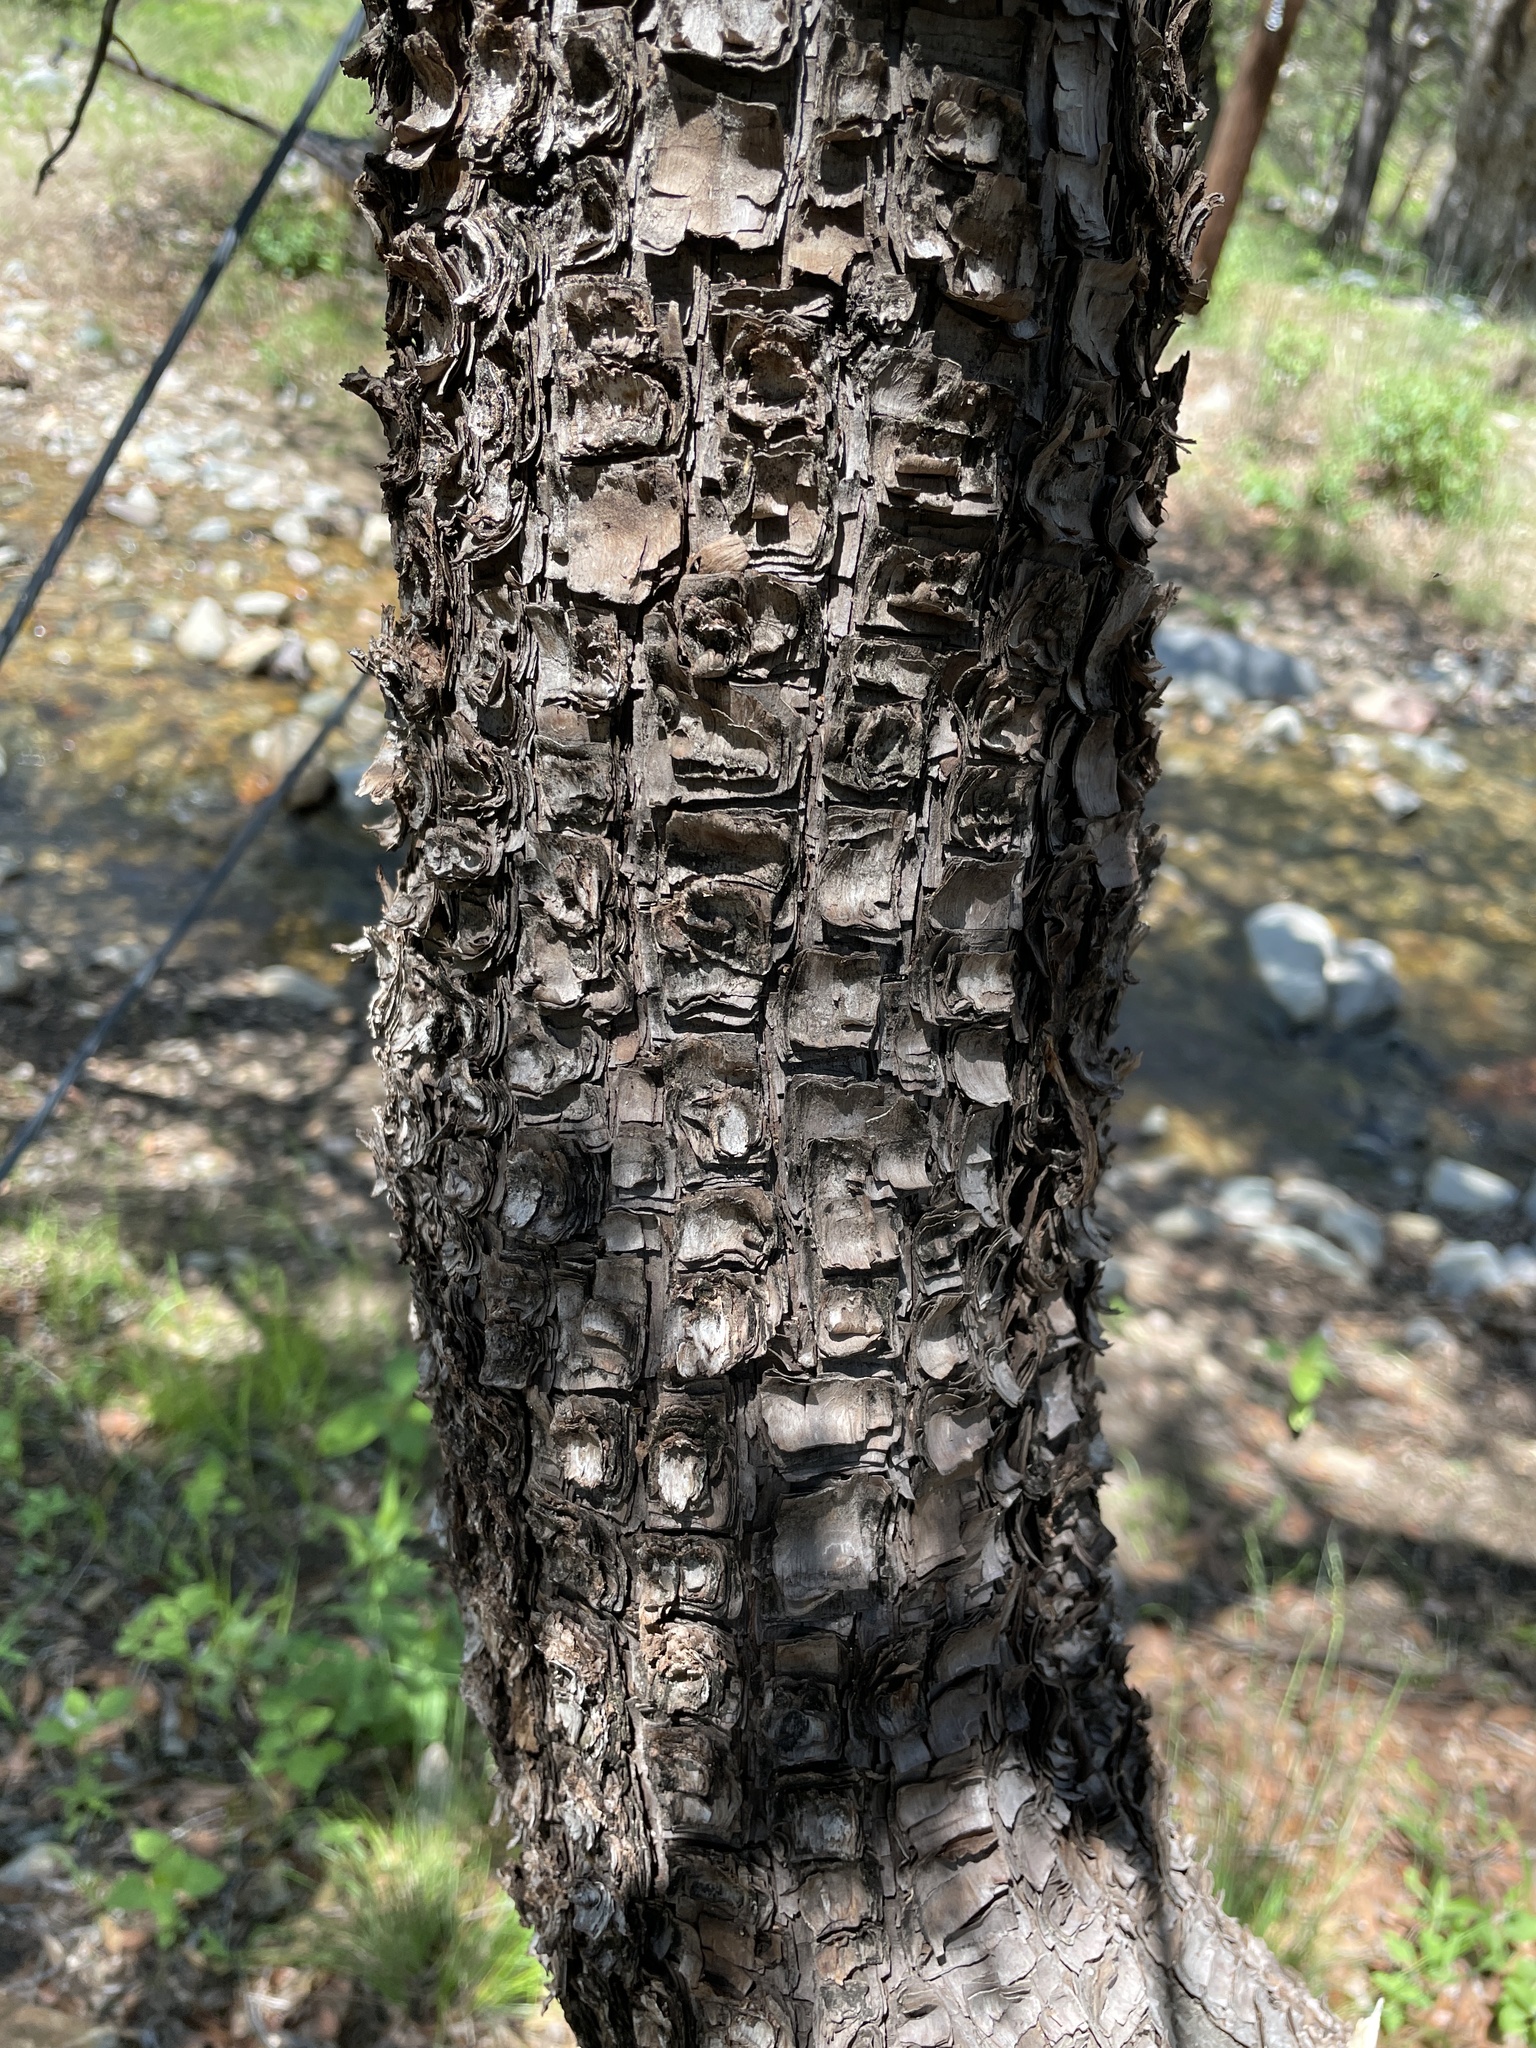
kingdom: Plantae
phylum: Tracheophyta
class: Pinopsida
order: Pinales
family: Cupressaceae
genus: Juniperus
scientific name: Juniperus deppeana
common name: Alligator juniper
